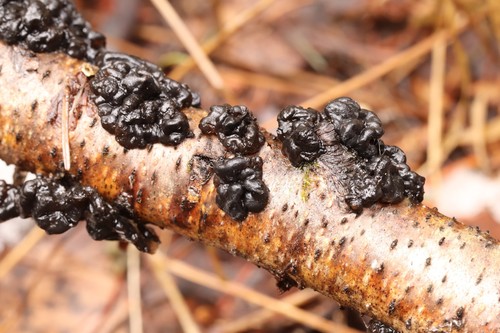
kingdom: Fungi
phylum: Basidiomycota
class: Agaricomycetes
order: Auriculariales
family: Auriculariaceae
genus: Exidia
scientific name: Exidia glandulosa
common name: Witches' butter
